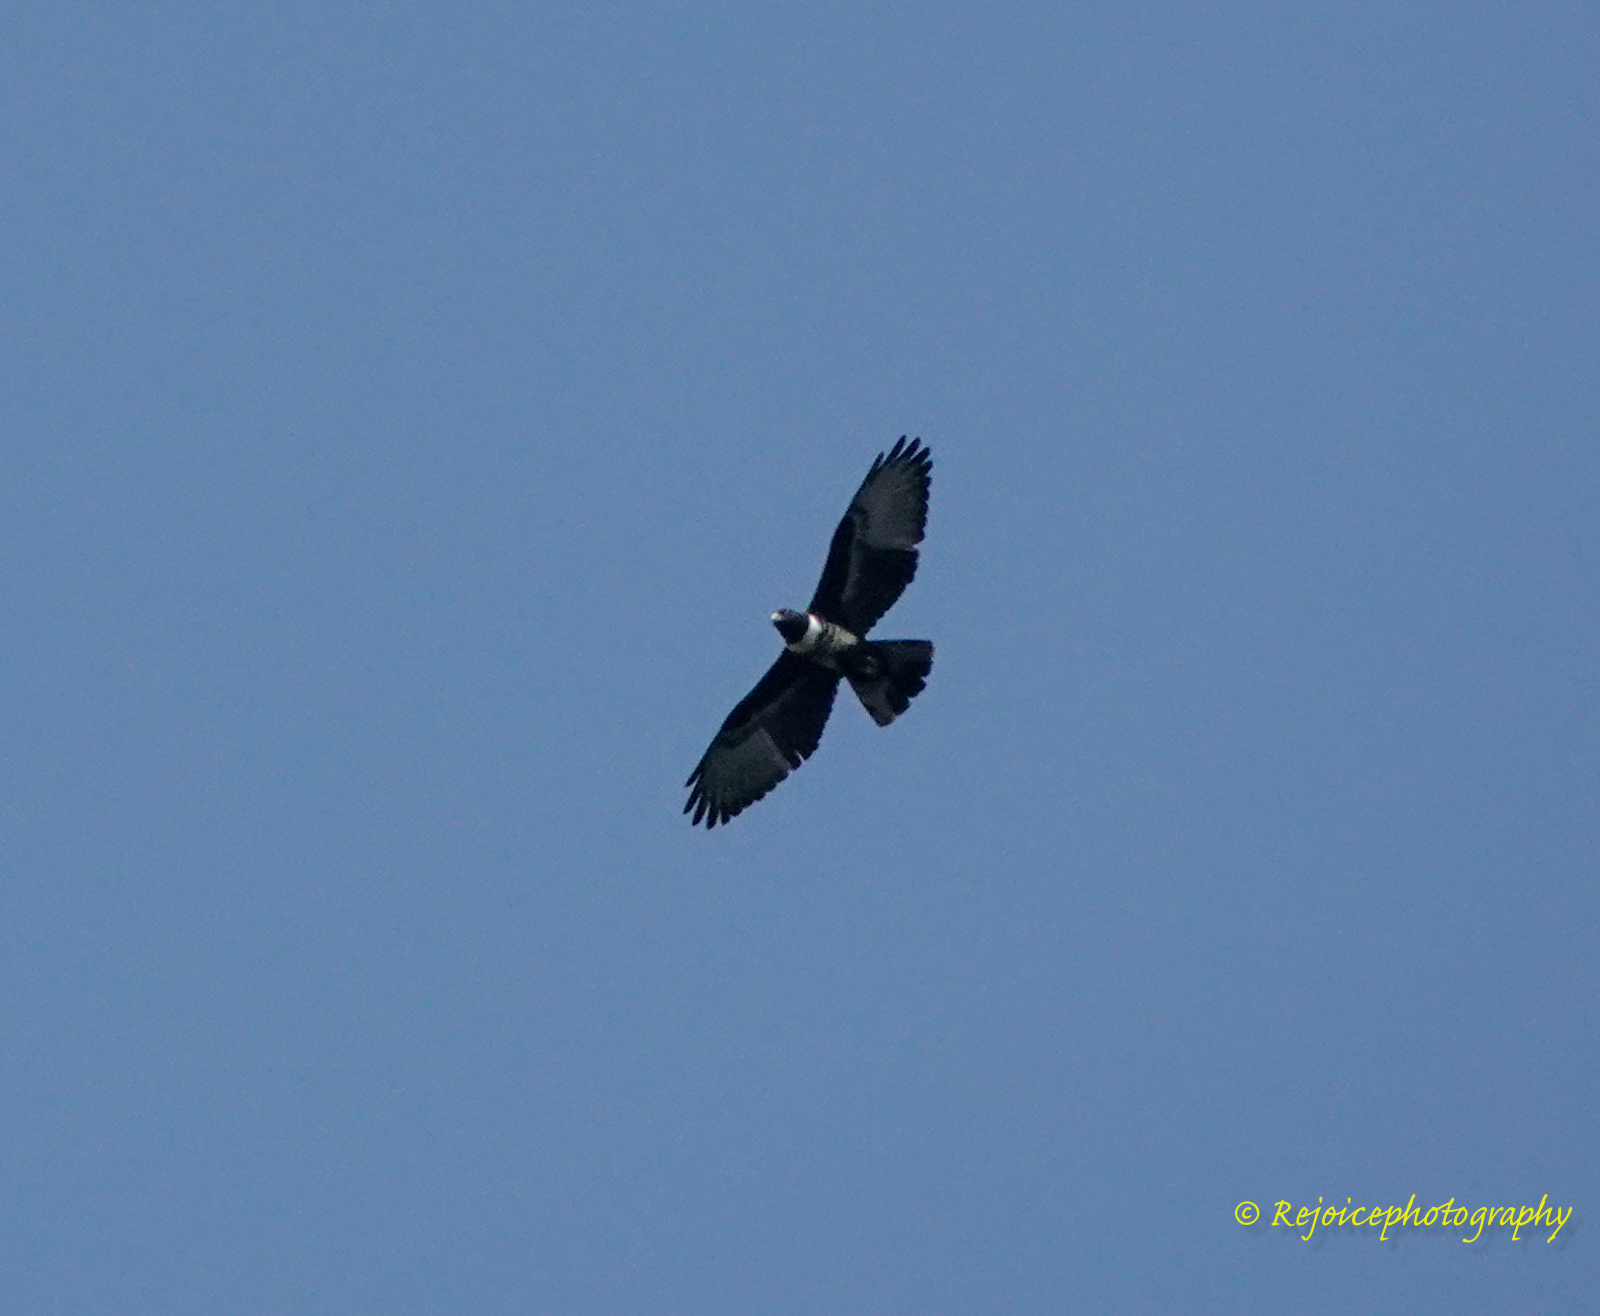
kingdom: Animalia
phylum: Chordata
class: Aves
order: Accipitriformes
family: Accipitridae
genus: Aviceda
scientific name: Aviceda leuphotes
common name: Black baza
